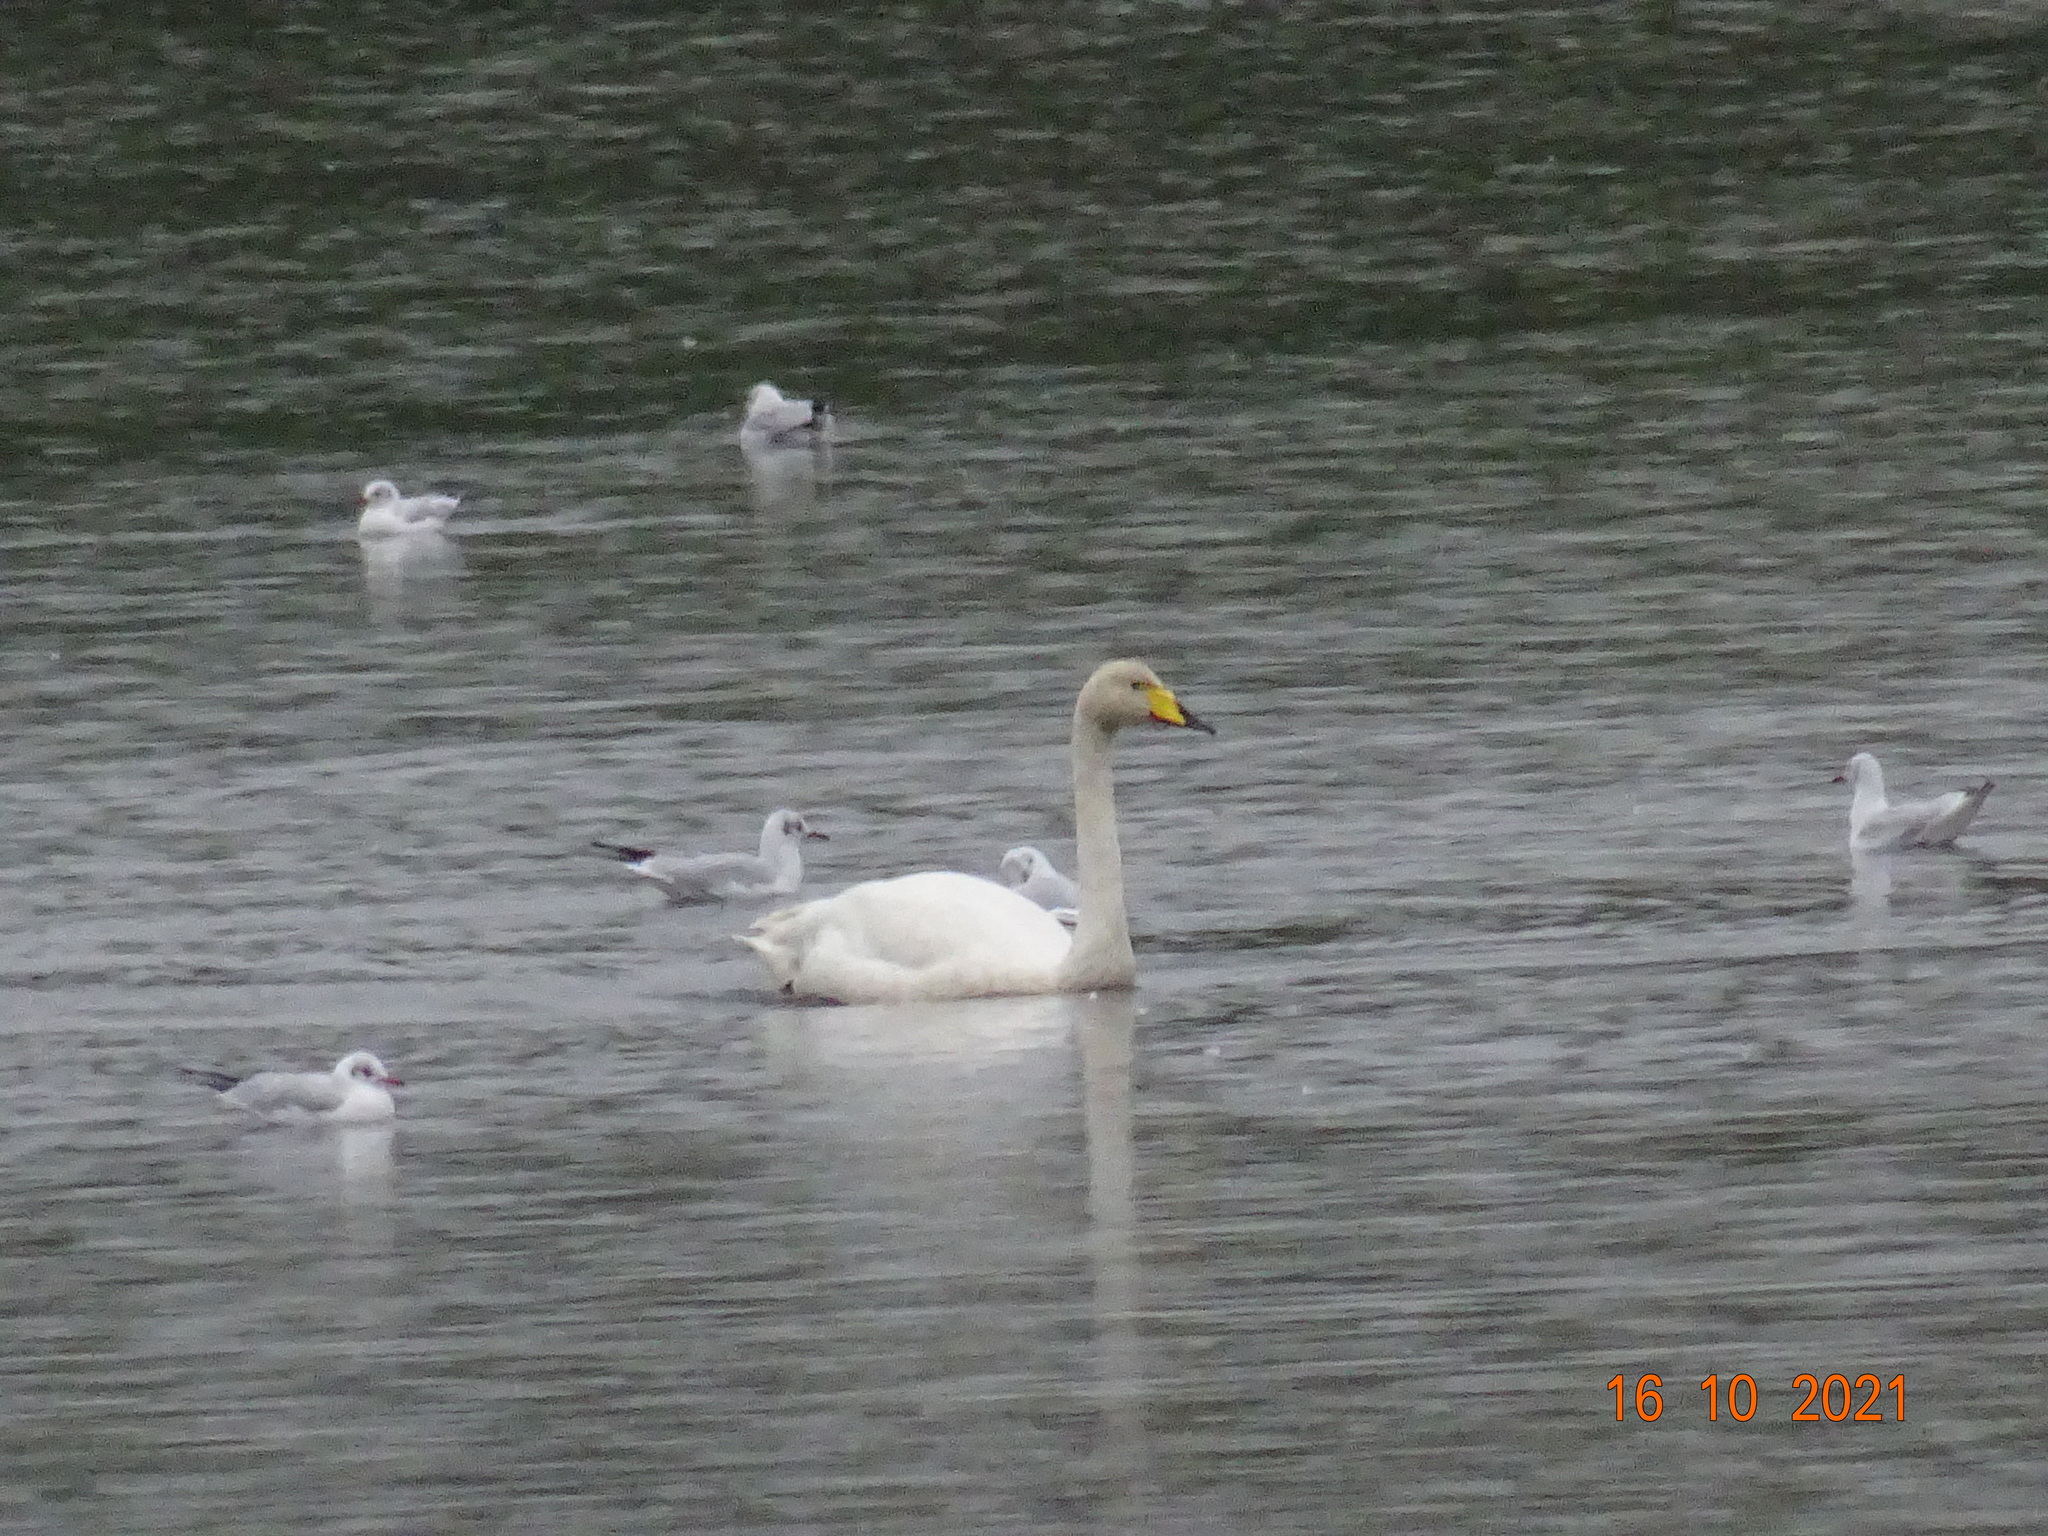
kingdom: Animalia
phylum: Chordata
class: Aves
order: Anseriformes
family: Anatidae
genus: Cygnus
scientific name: Cygnus cygnus
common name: Whooper swan
